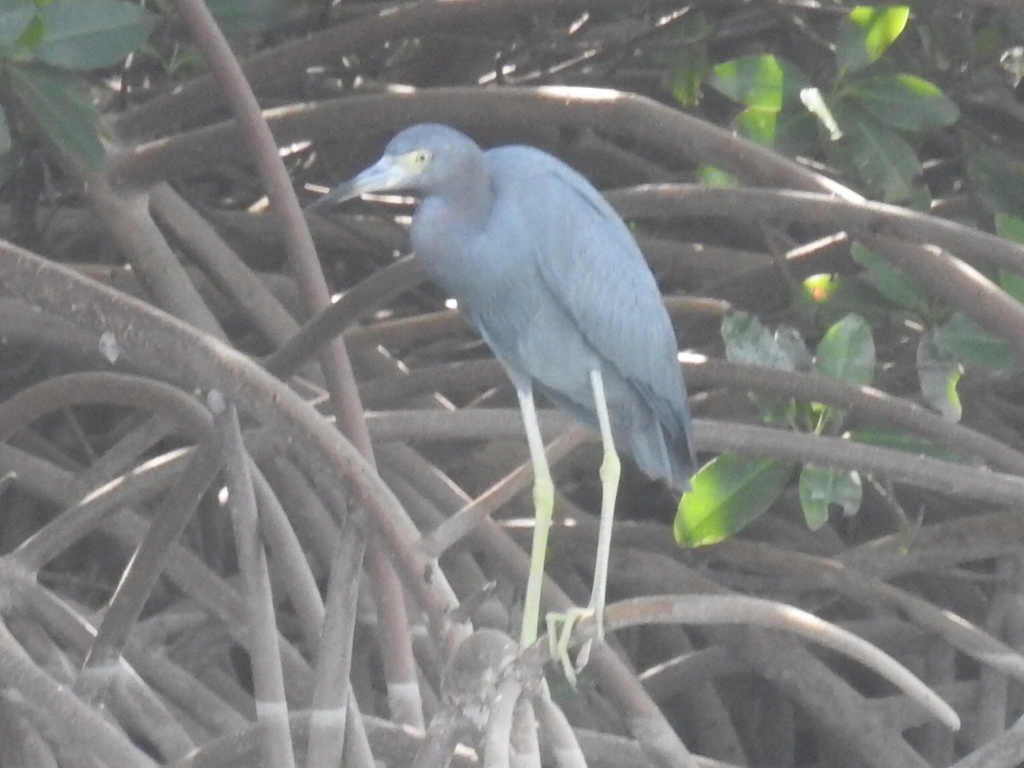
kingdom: Animalia
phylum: Chordata
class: Aves
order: Pelecaniformes
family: Ardeidae
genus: Egretta
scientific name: Egretta caerulea
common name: Little blue heron
